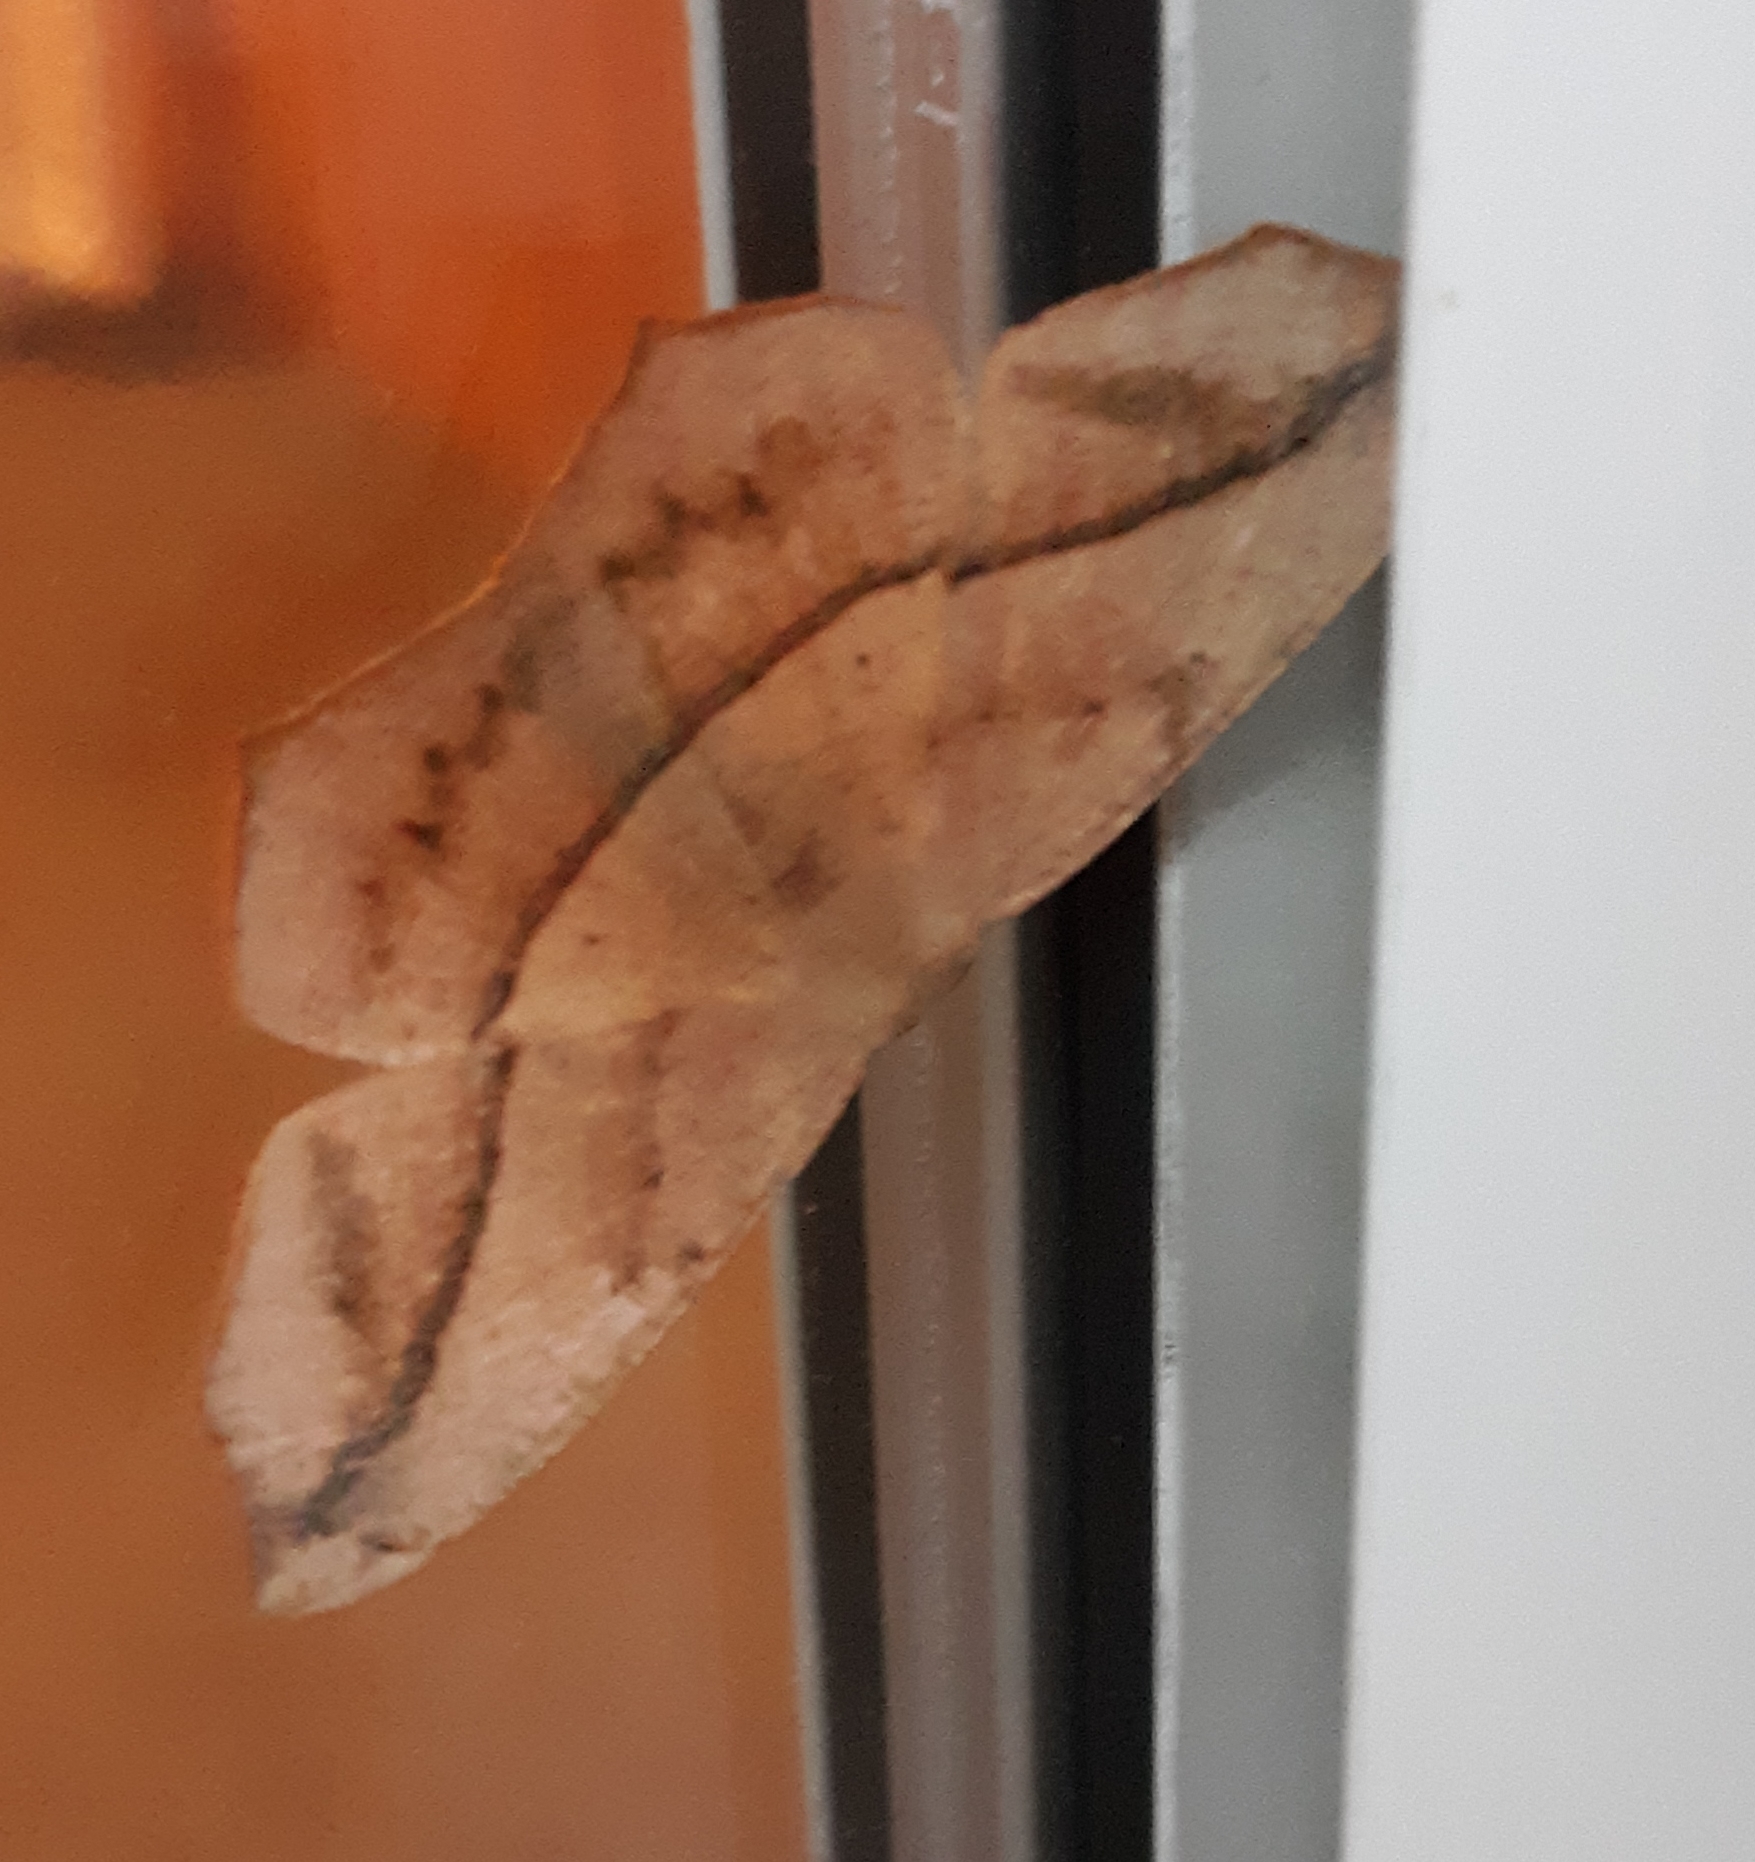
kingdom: Animalia
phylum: Arthropoda
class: Insecta
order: Lepidoptera
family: Geometridae
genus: Prochoerodes
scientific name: Prochoerodes lineola
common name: Large maple spanworm
